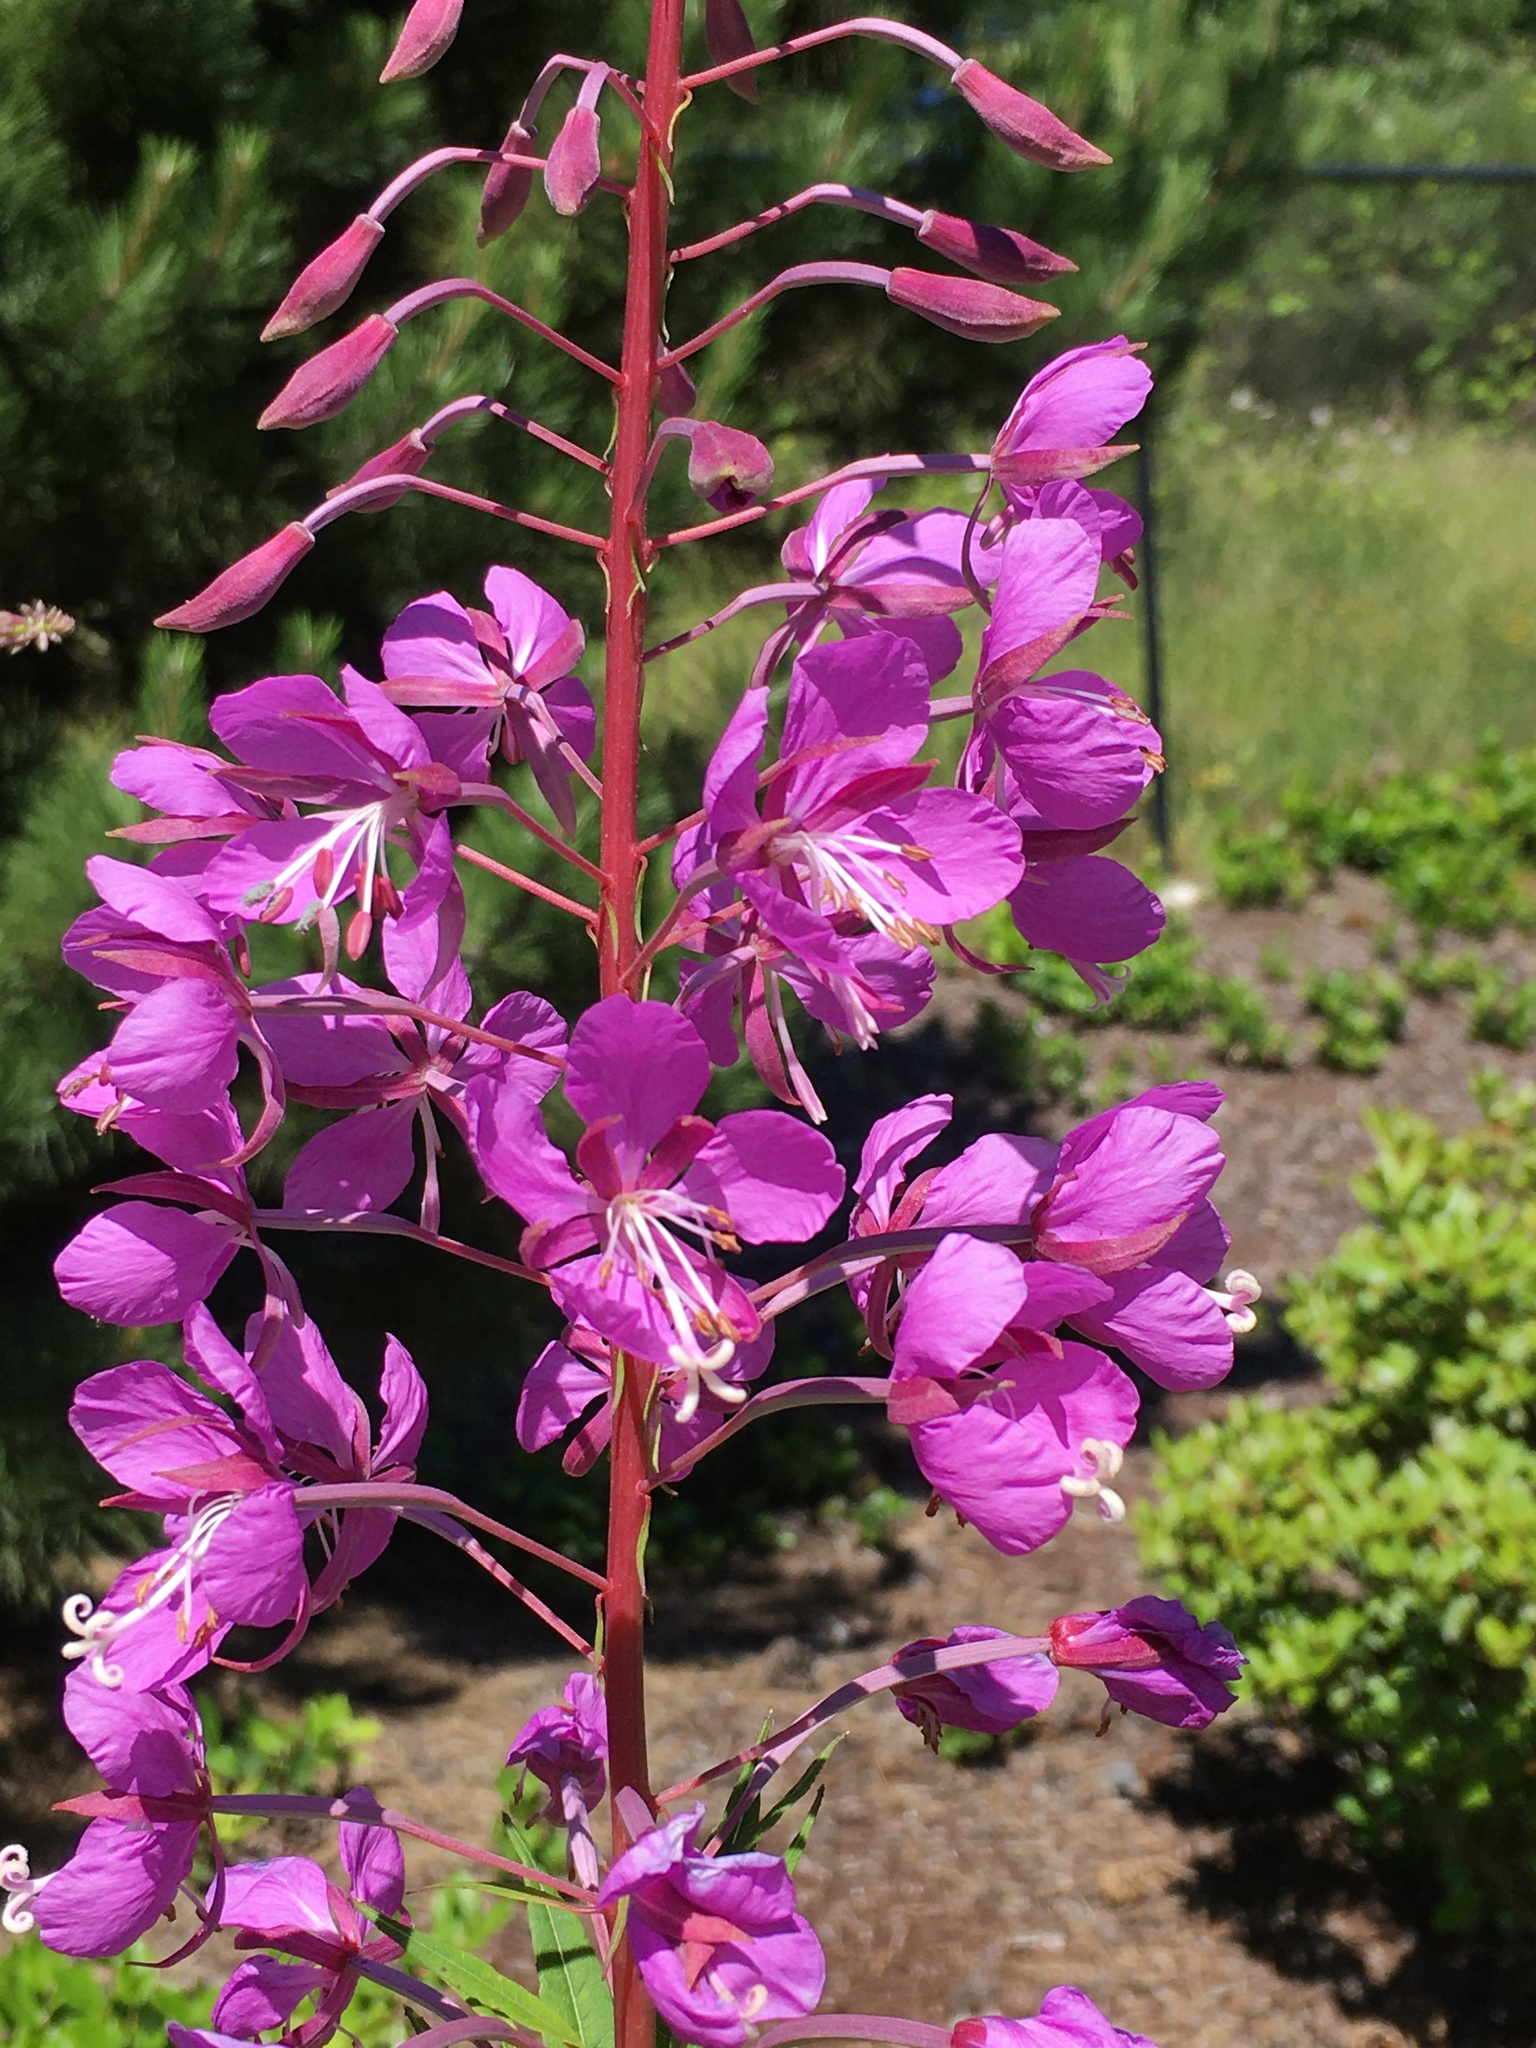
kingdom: Plantae
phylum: Tracheophyta
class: Magnoliopsida
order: Myrtales
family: Onagraceae
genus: Chamaenerion
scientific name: Chamaenerion angustifolium
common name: Fireweed
